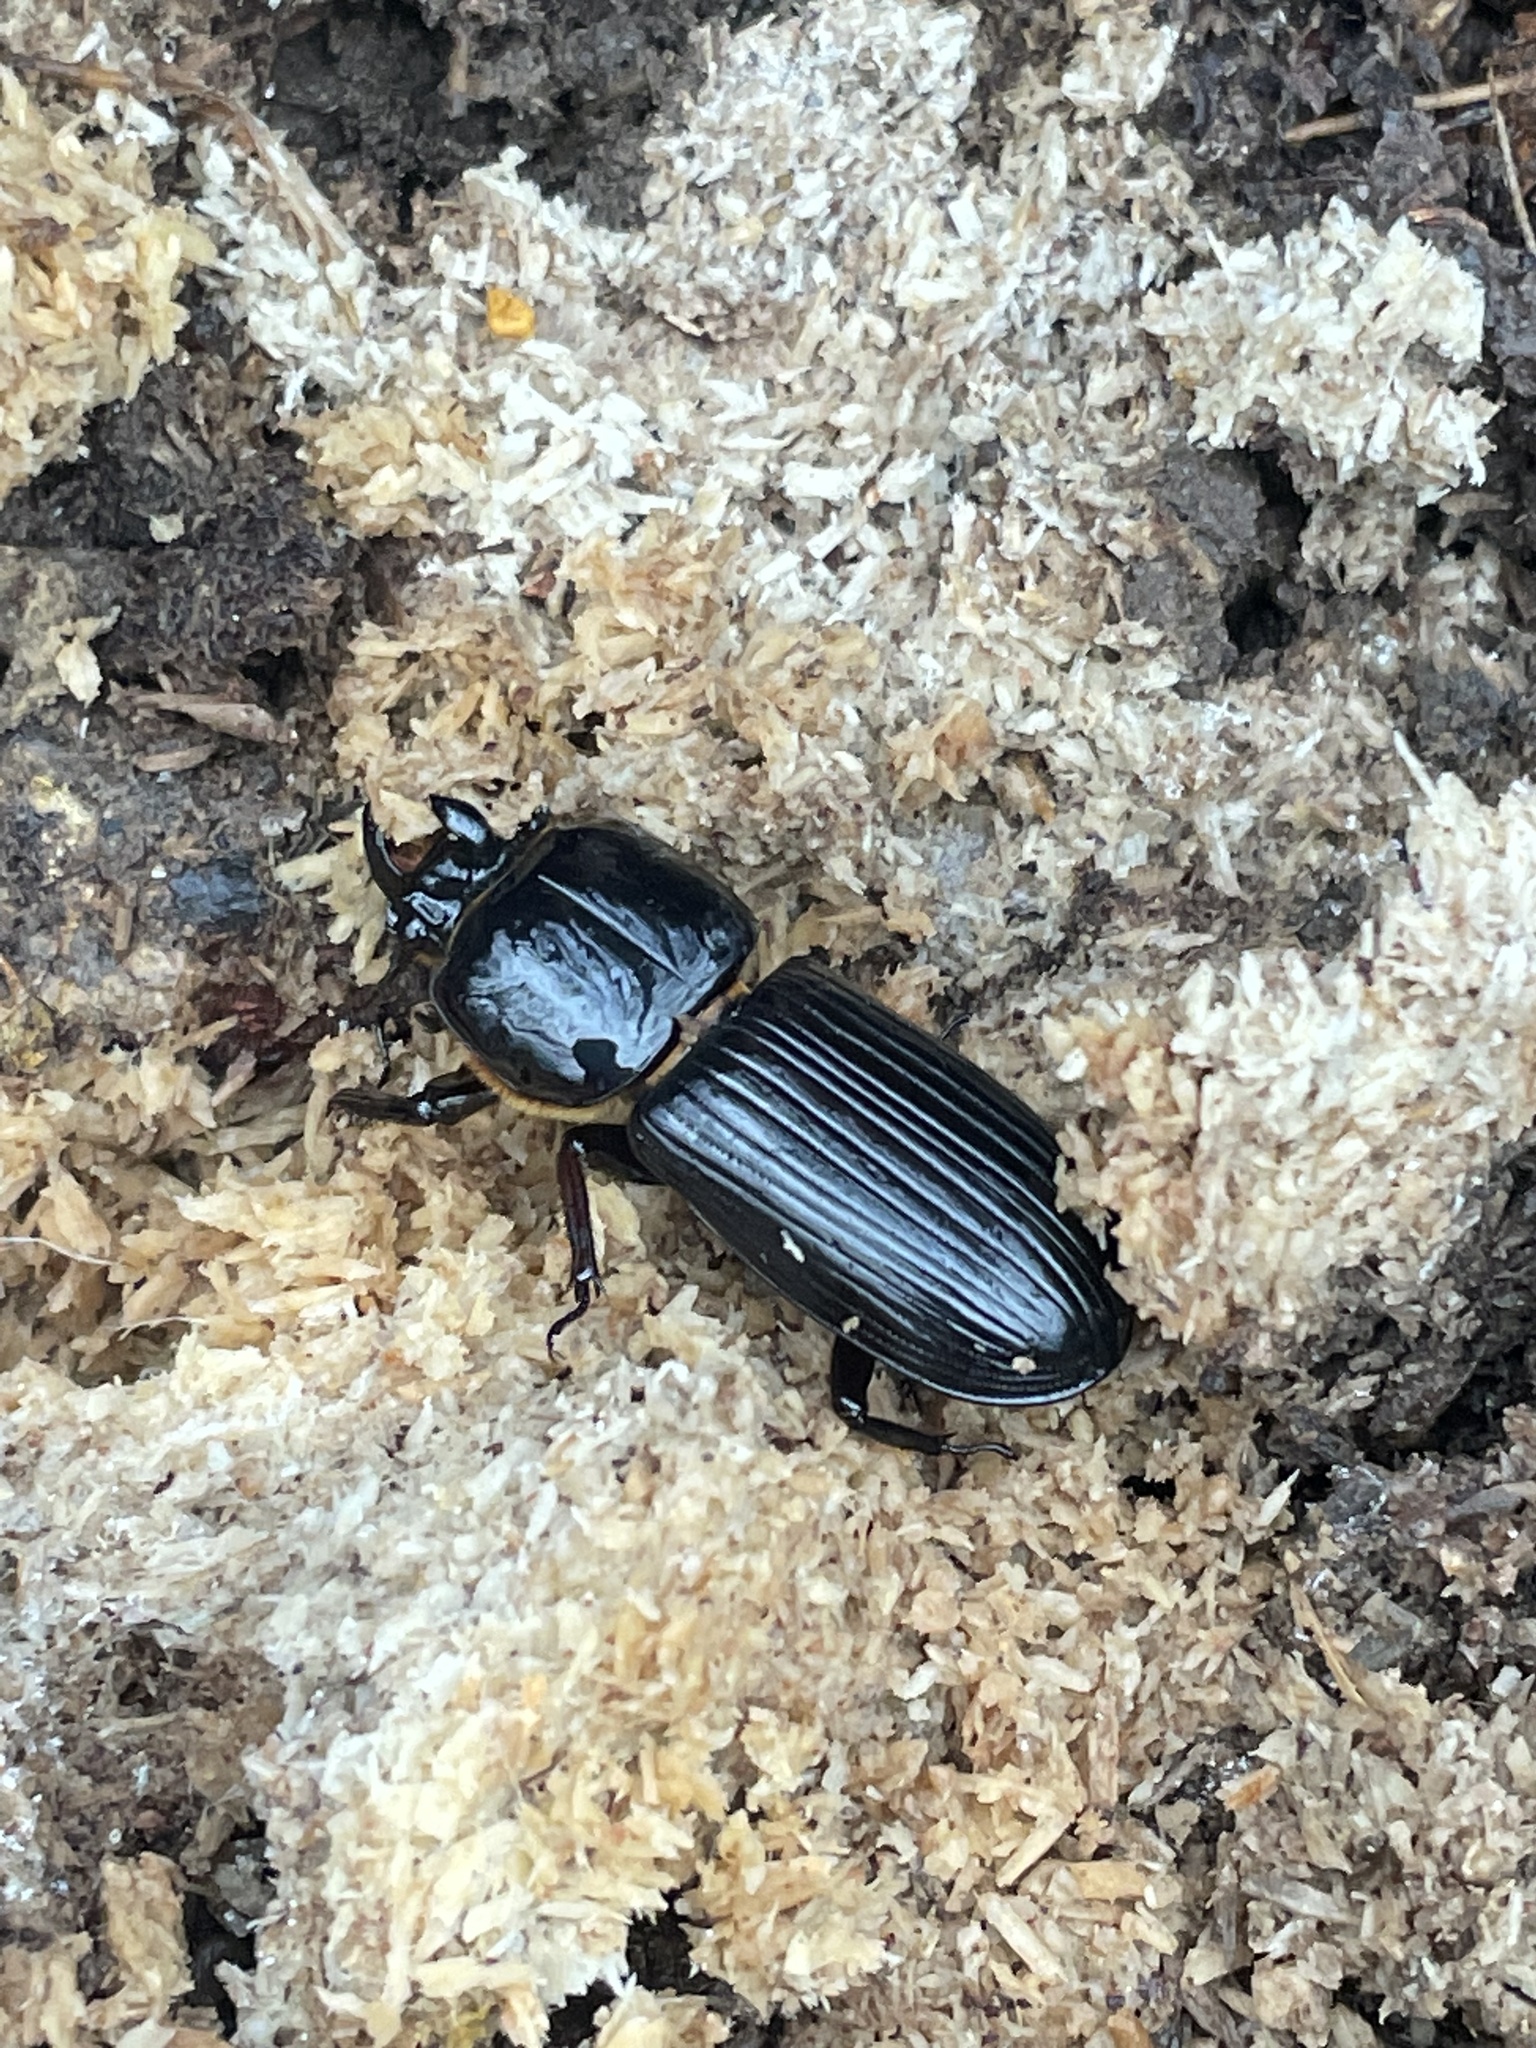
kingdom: Animalia
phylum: Arthropoda
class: Insecta
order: Coleoptera
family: Passalidae
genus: Odontotaenius
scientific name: Odontotaenius disjunctus
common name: Patent leather beetle
